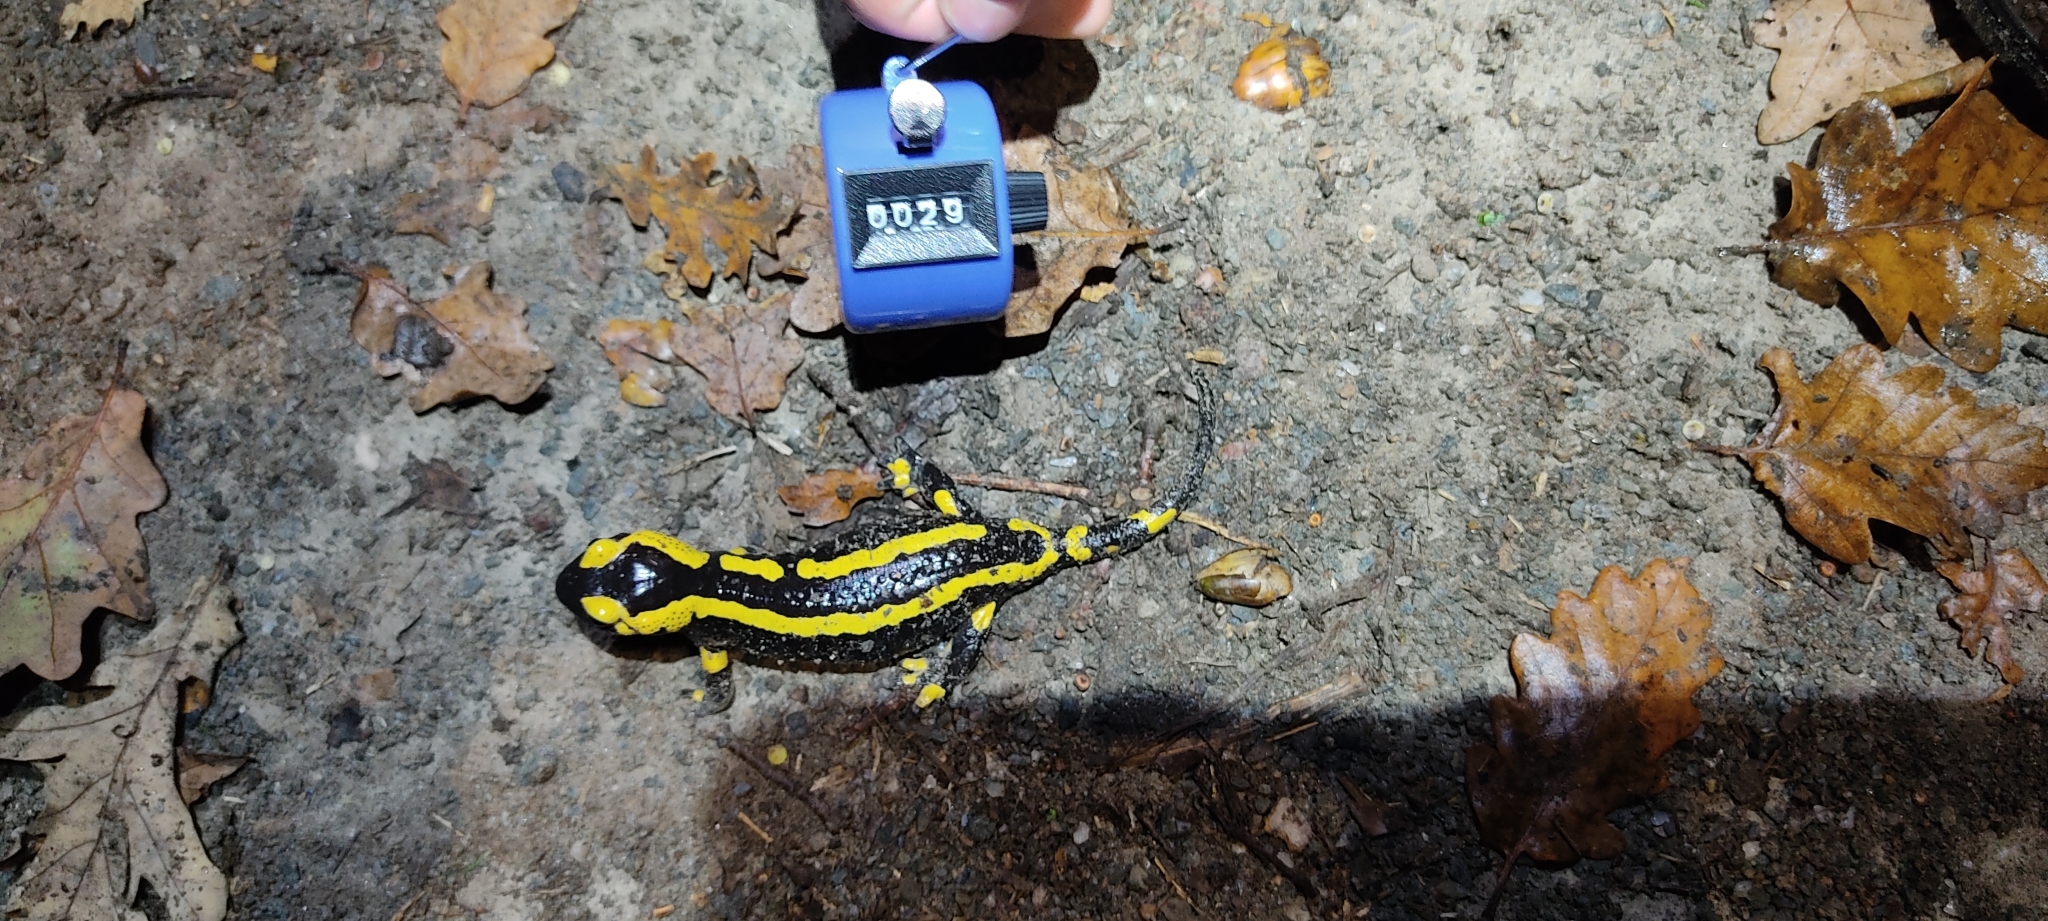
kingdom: Animalia
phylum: Chordata
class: Amphibia
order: Caudata
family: Salamandridae
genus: Salamandra
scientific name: Salamandra salamandra
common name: Fire salamander
